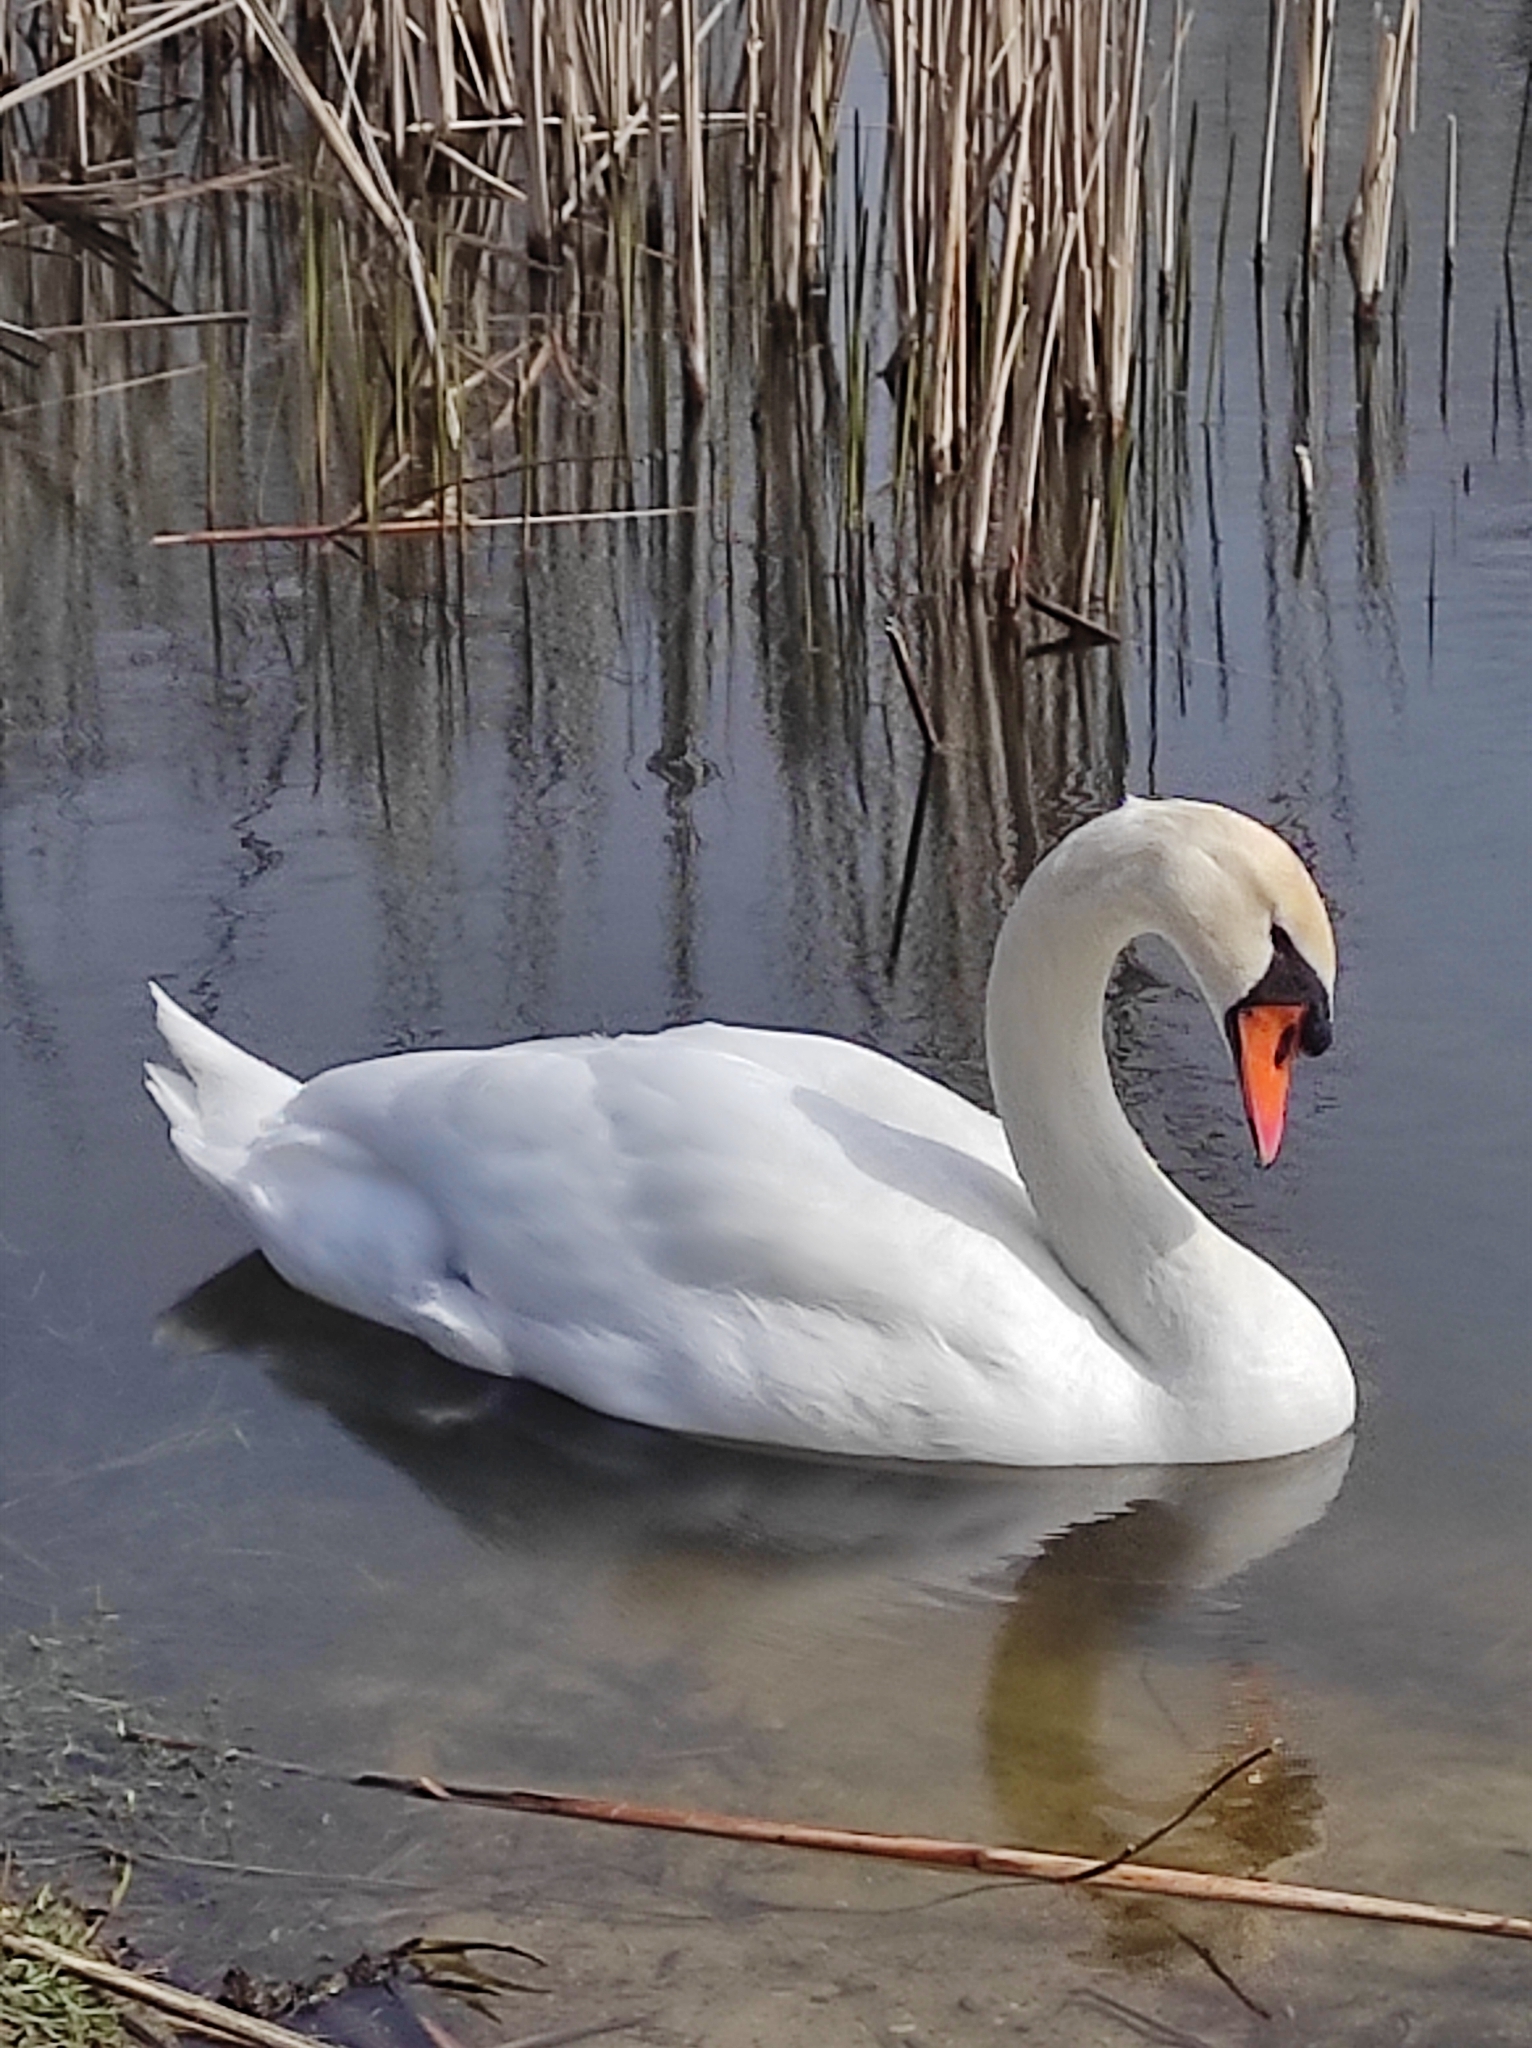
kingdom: Animalia
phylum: Chordata
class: Aves
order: Anseriformes
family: Anatidae
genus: Cygnus
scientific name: Cygnus olor
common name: Mute swan
